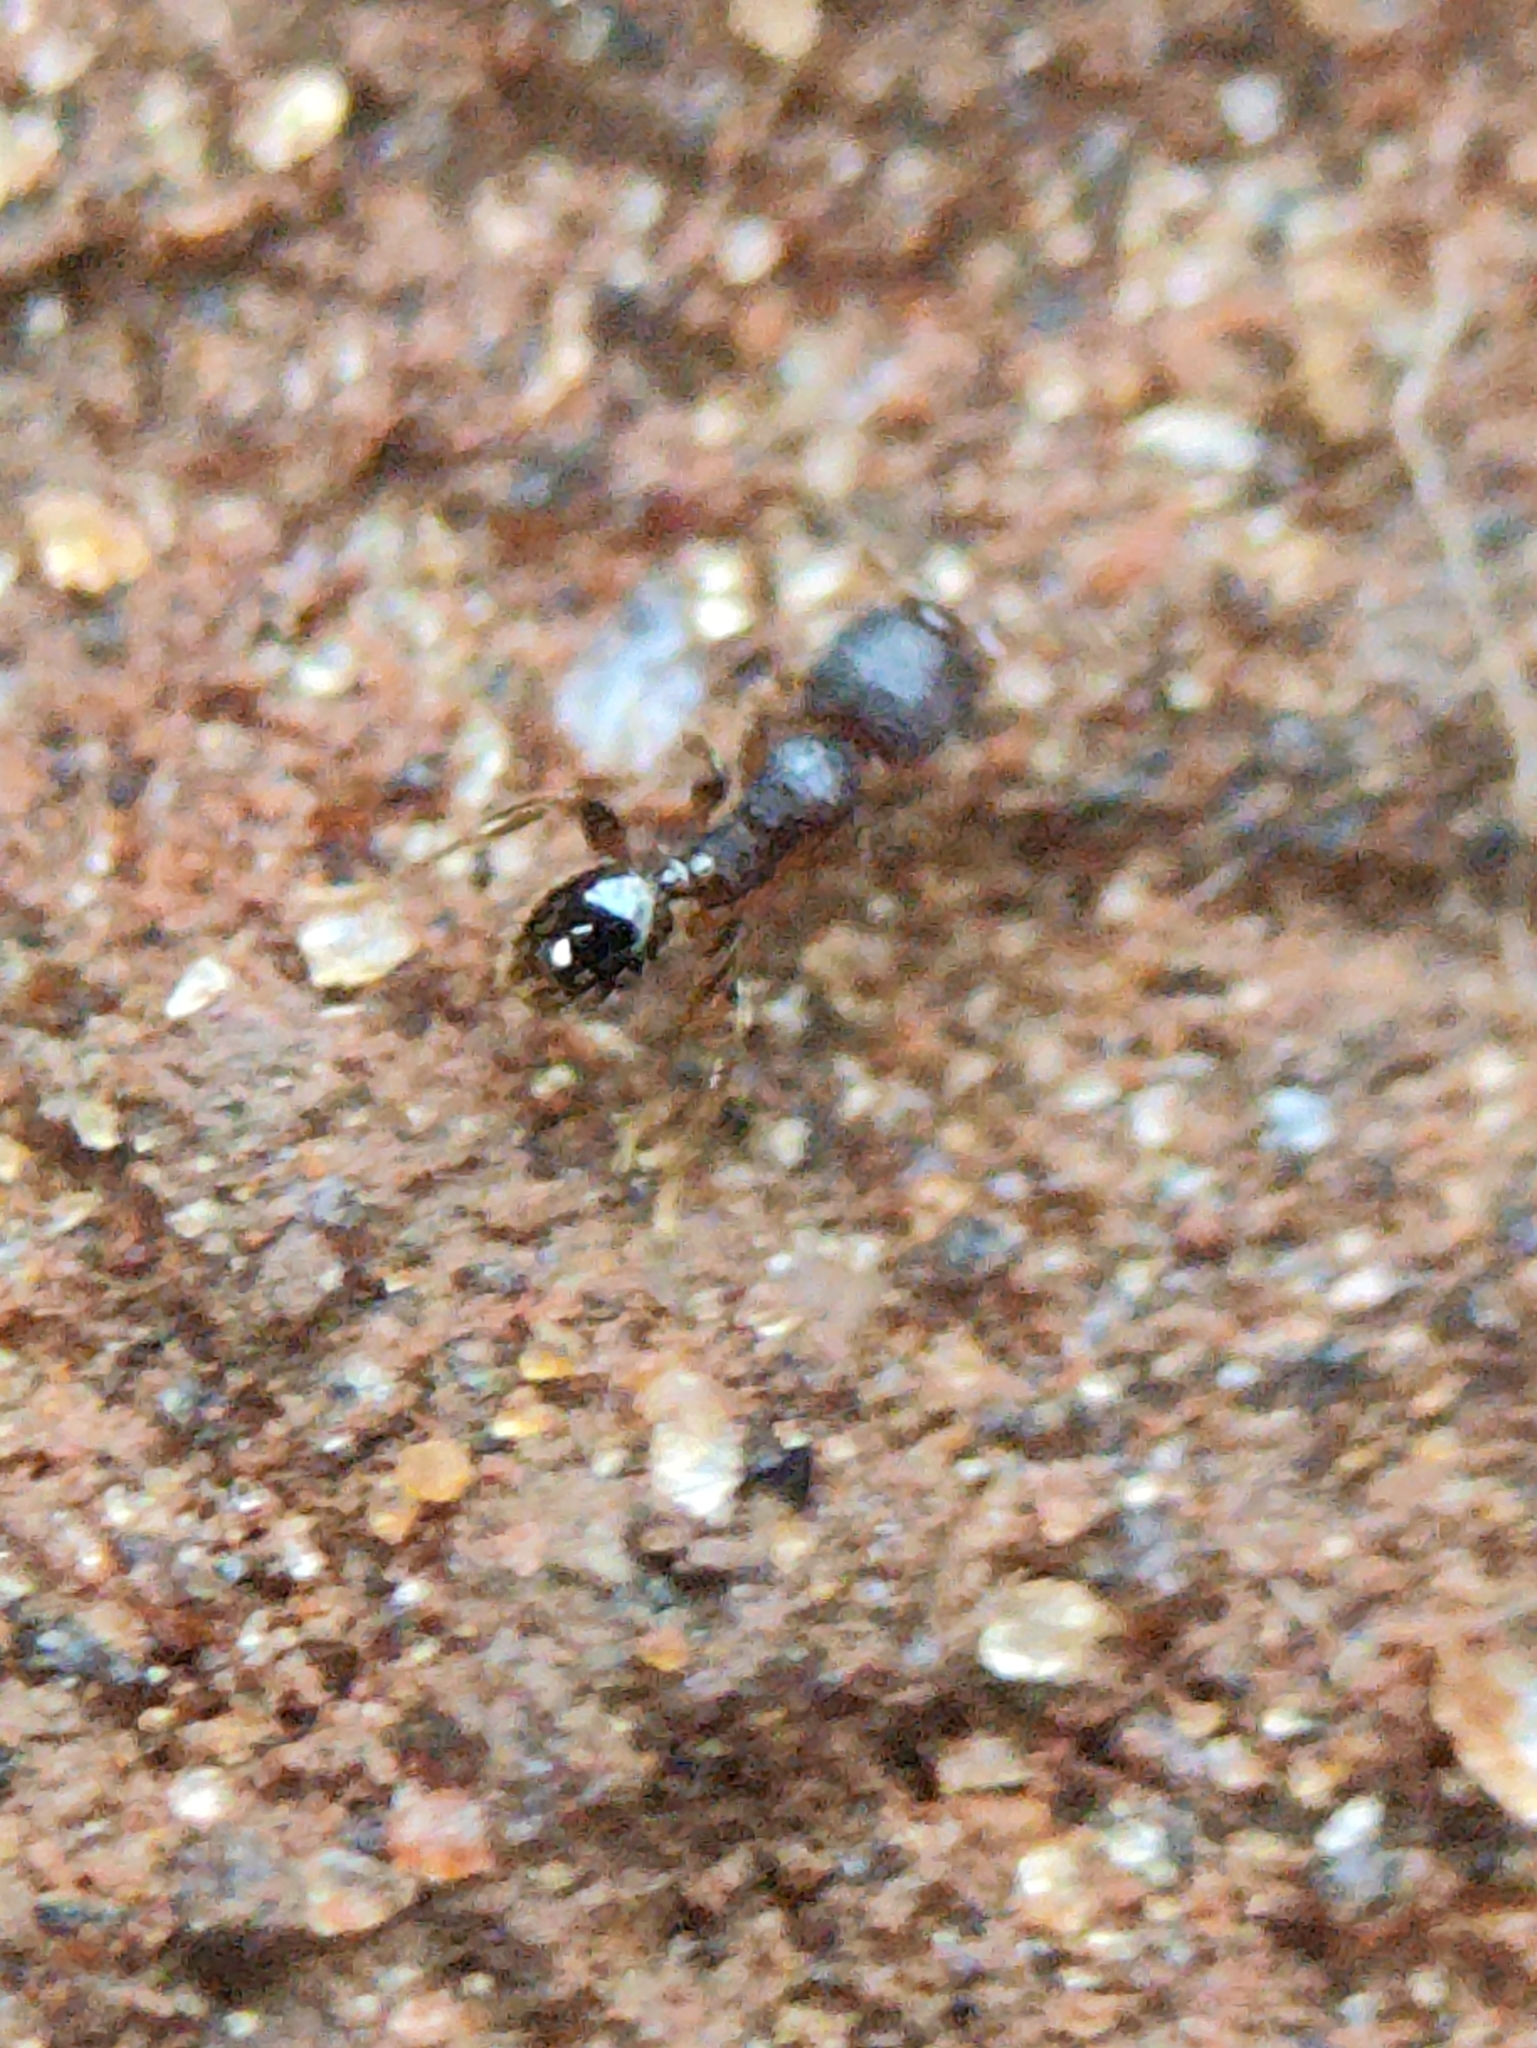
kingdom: Animalia
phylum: Arthropoda
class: Insecta
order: Hymenoptera
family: Formicidae
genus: Pheidole
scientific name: Pheidole parva
